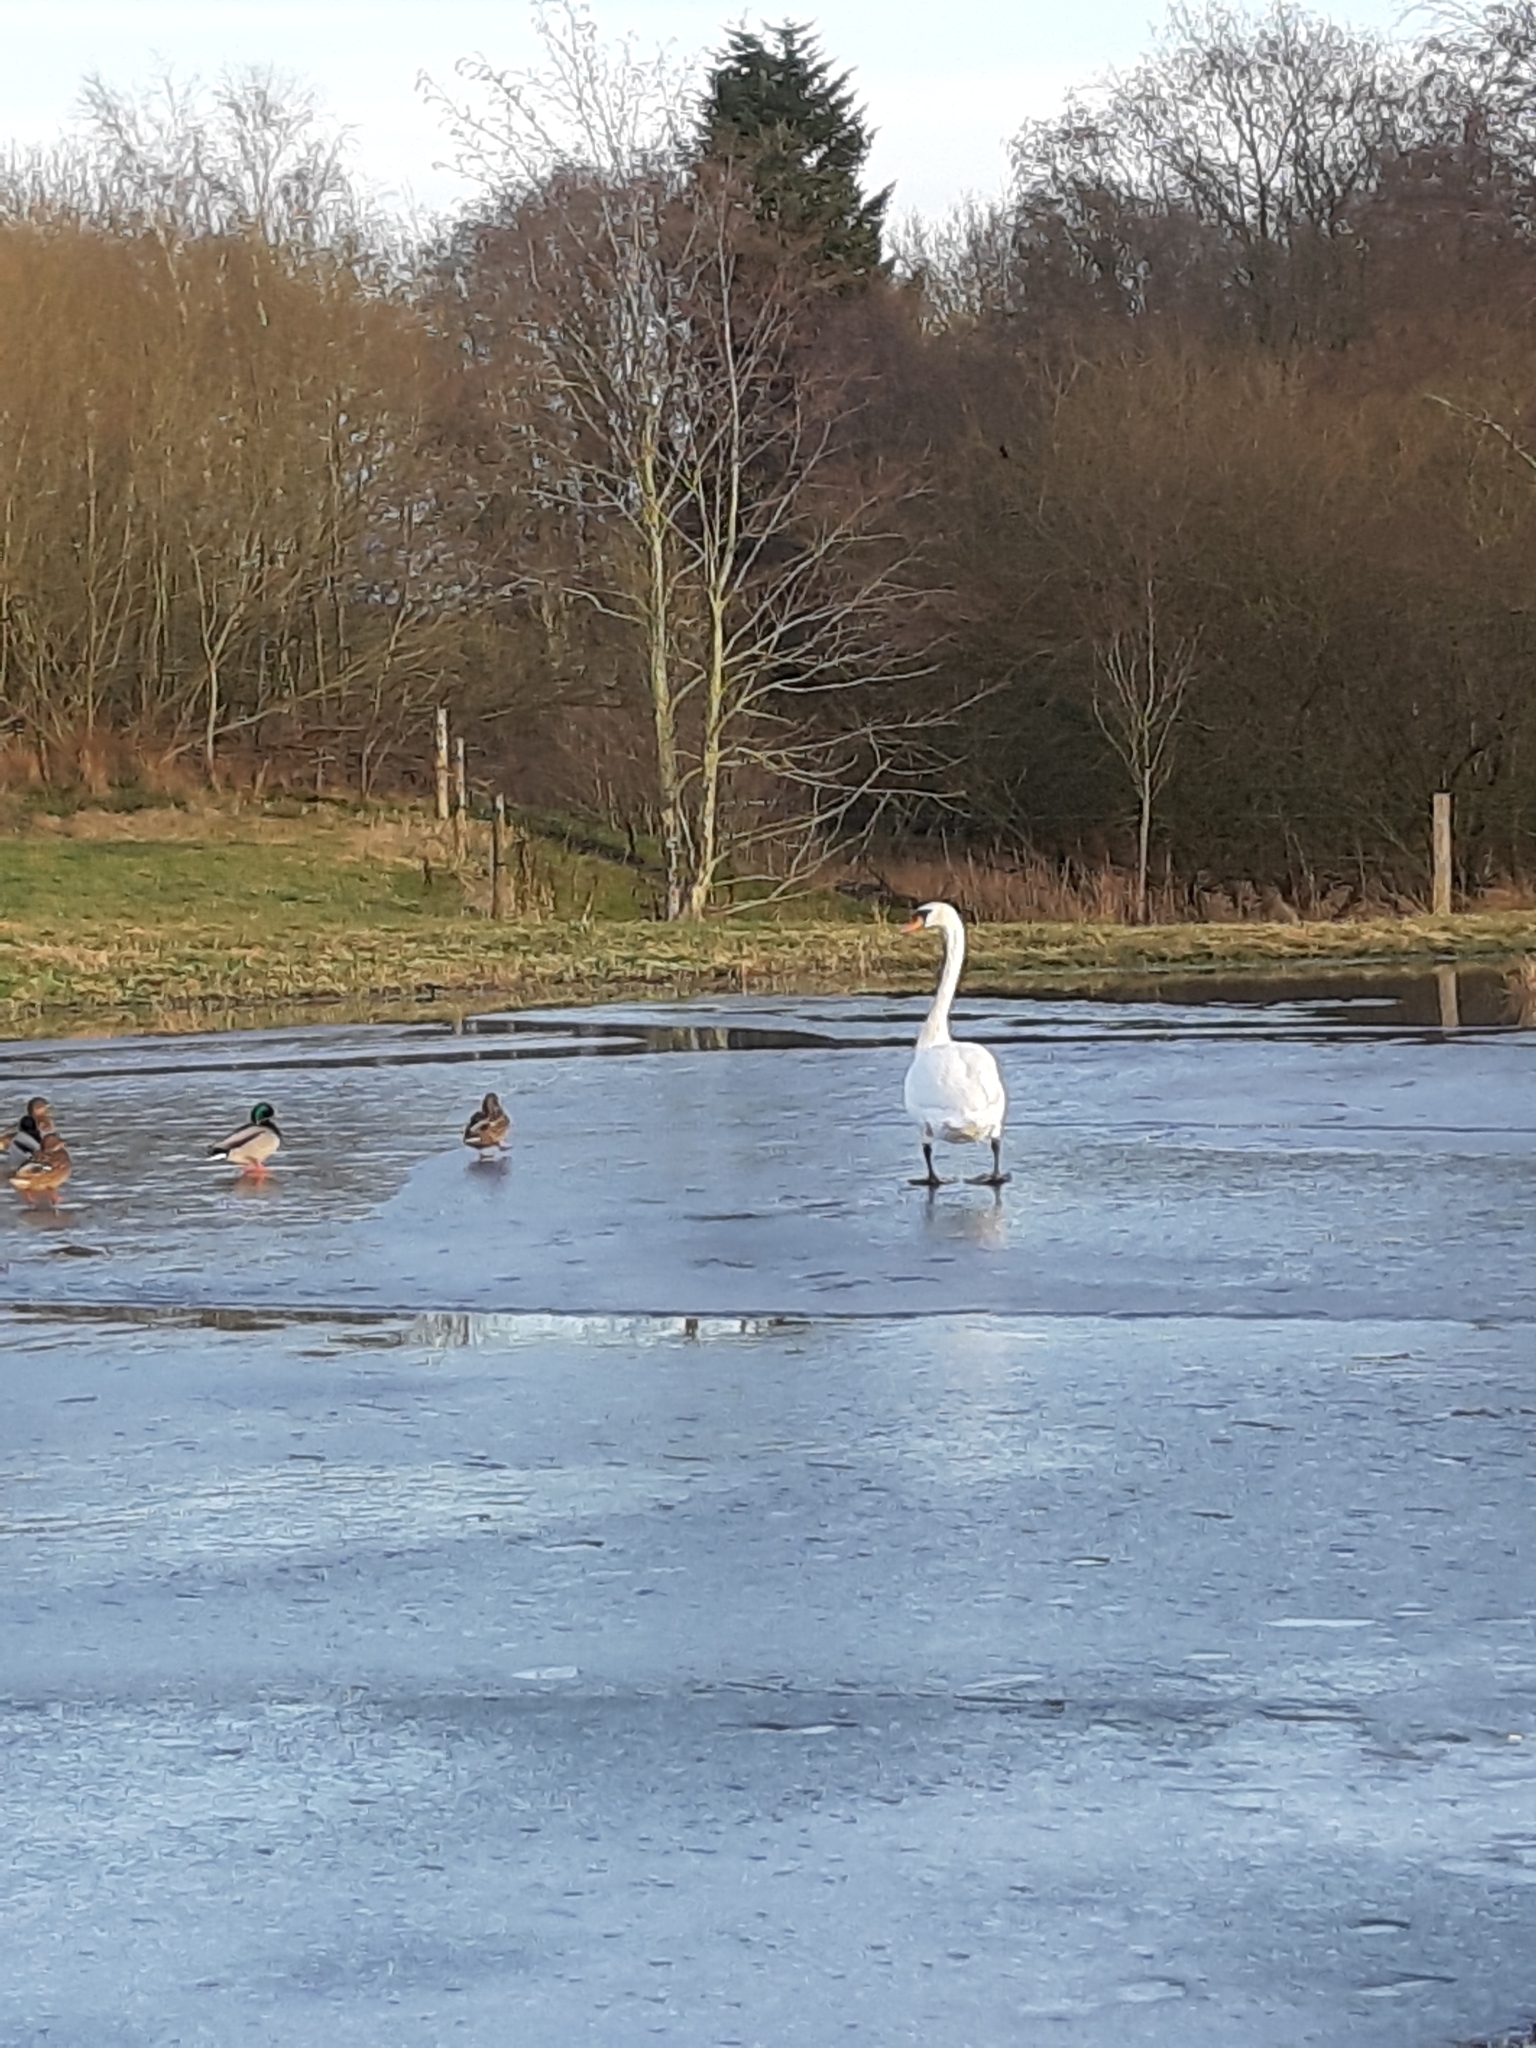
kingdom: Animalia
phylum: Chordata
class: Aves
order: Anseriformes
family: Anatidae
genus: Cygnus
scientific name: Cygnus olor
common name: Mute swan
